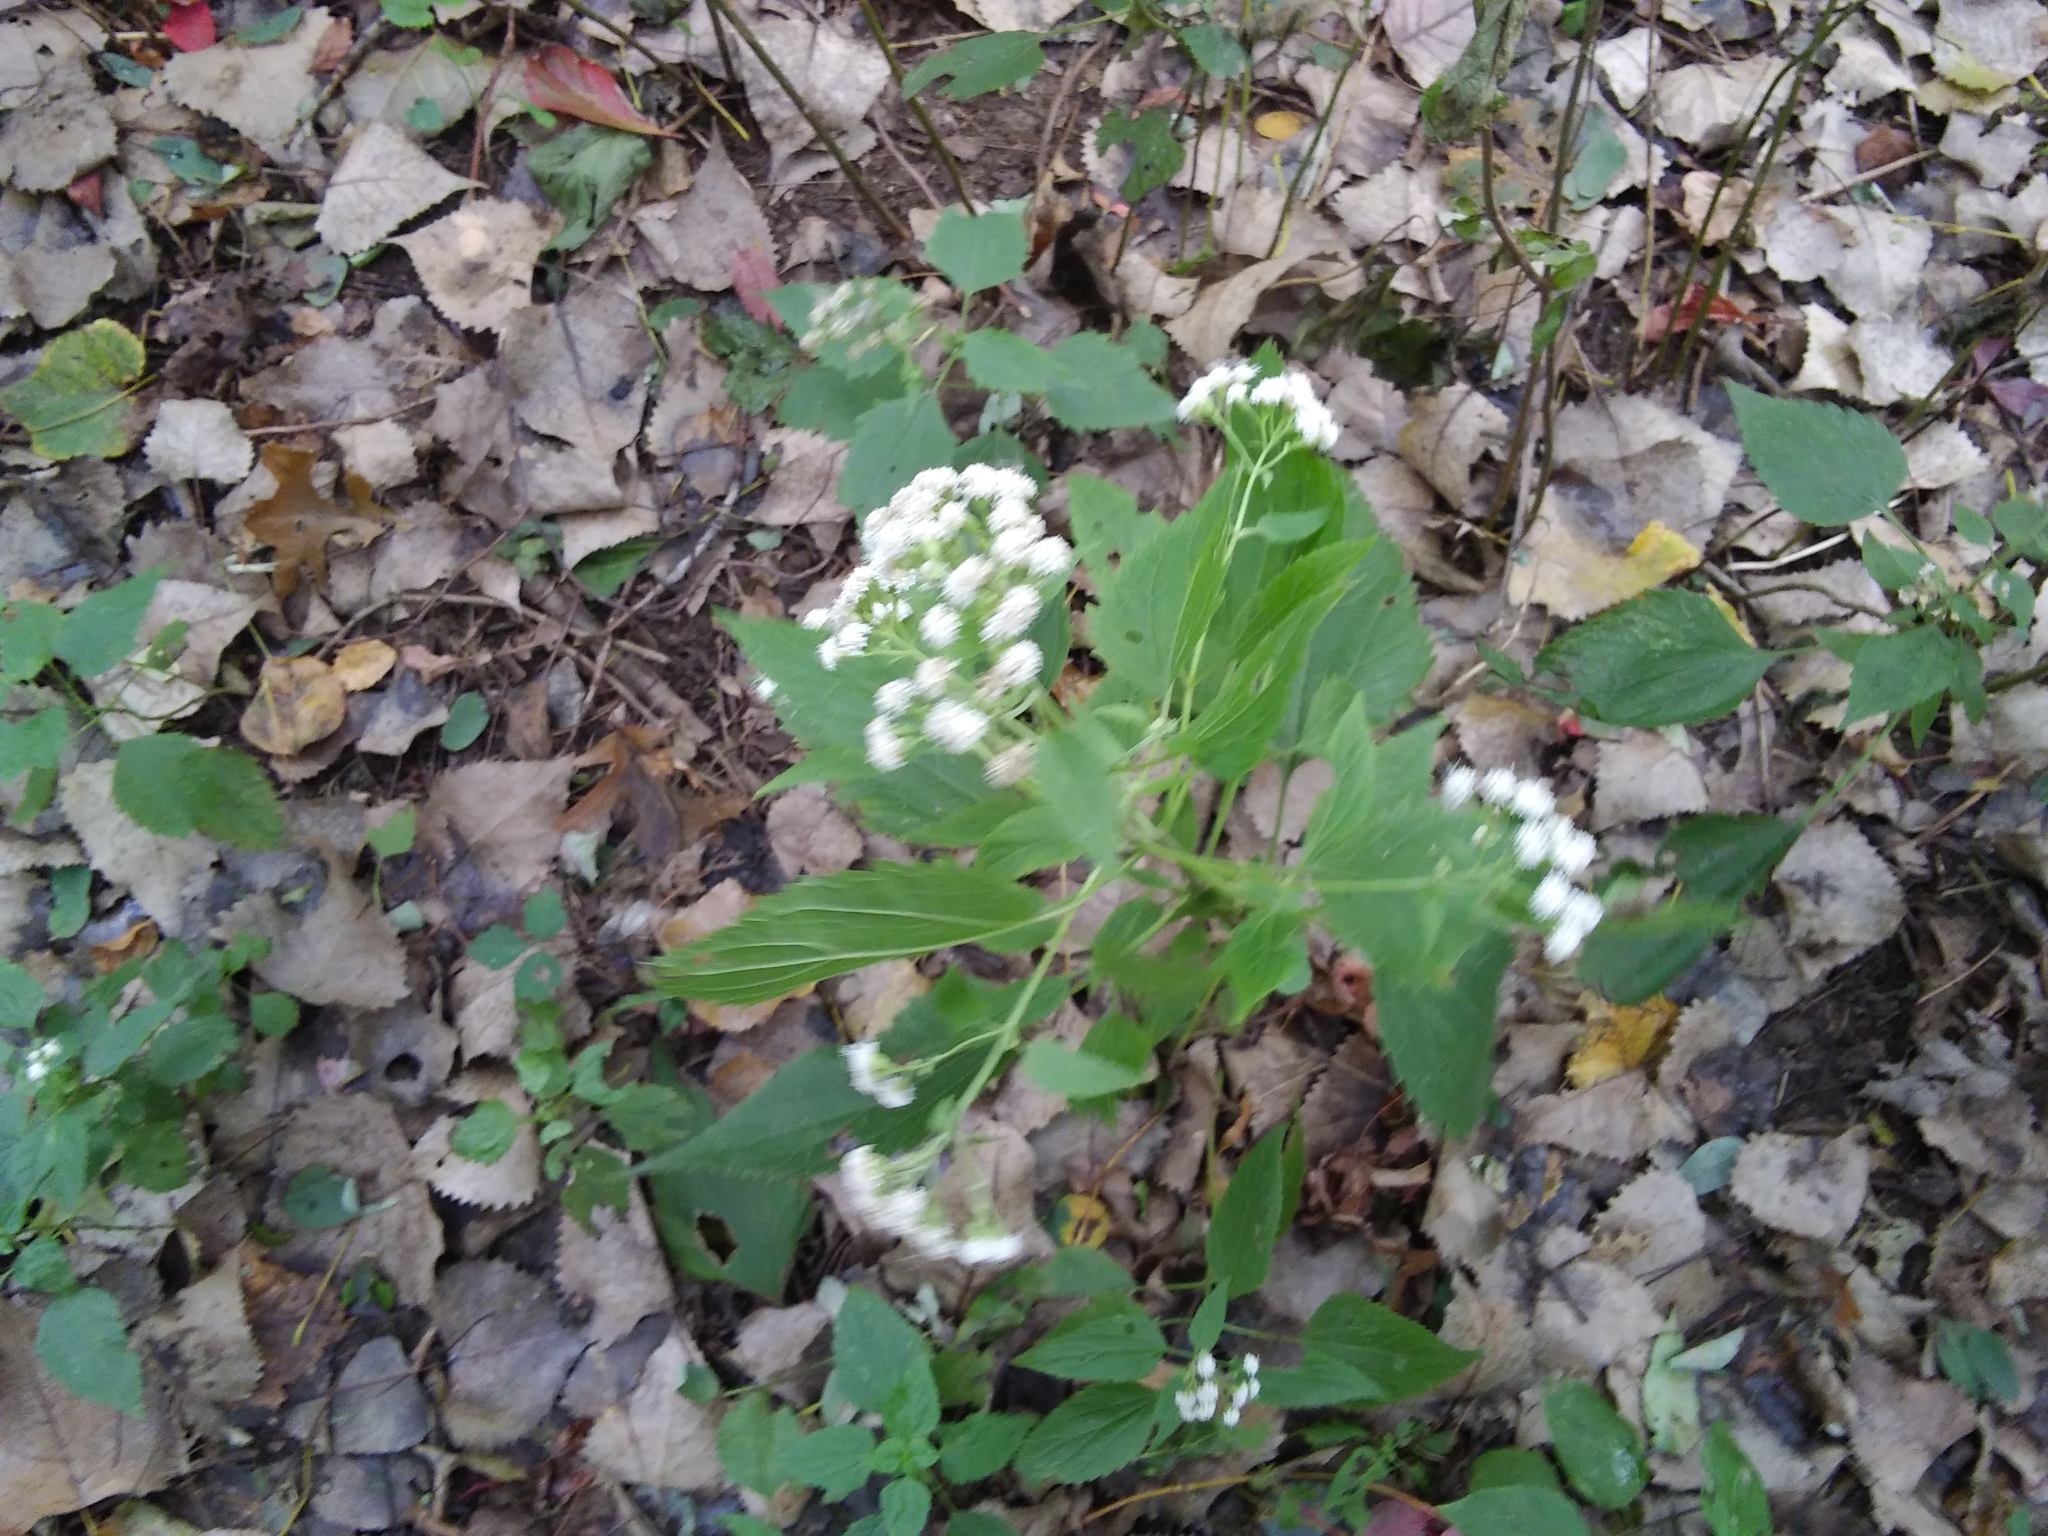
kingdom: Plantae
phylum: Tracheophyta
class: Magnoliopsida
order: Asterales
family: Asteraceae
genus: Ageratina
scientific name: Ageratina altissima
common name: White snakeroot
